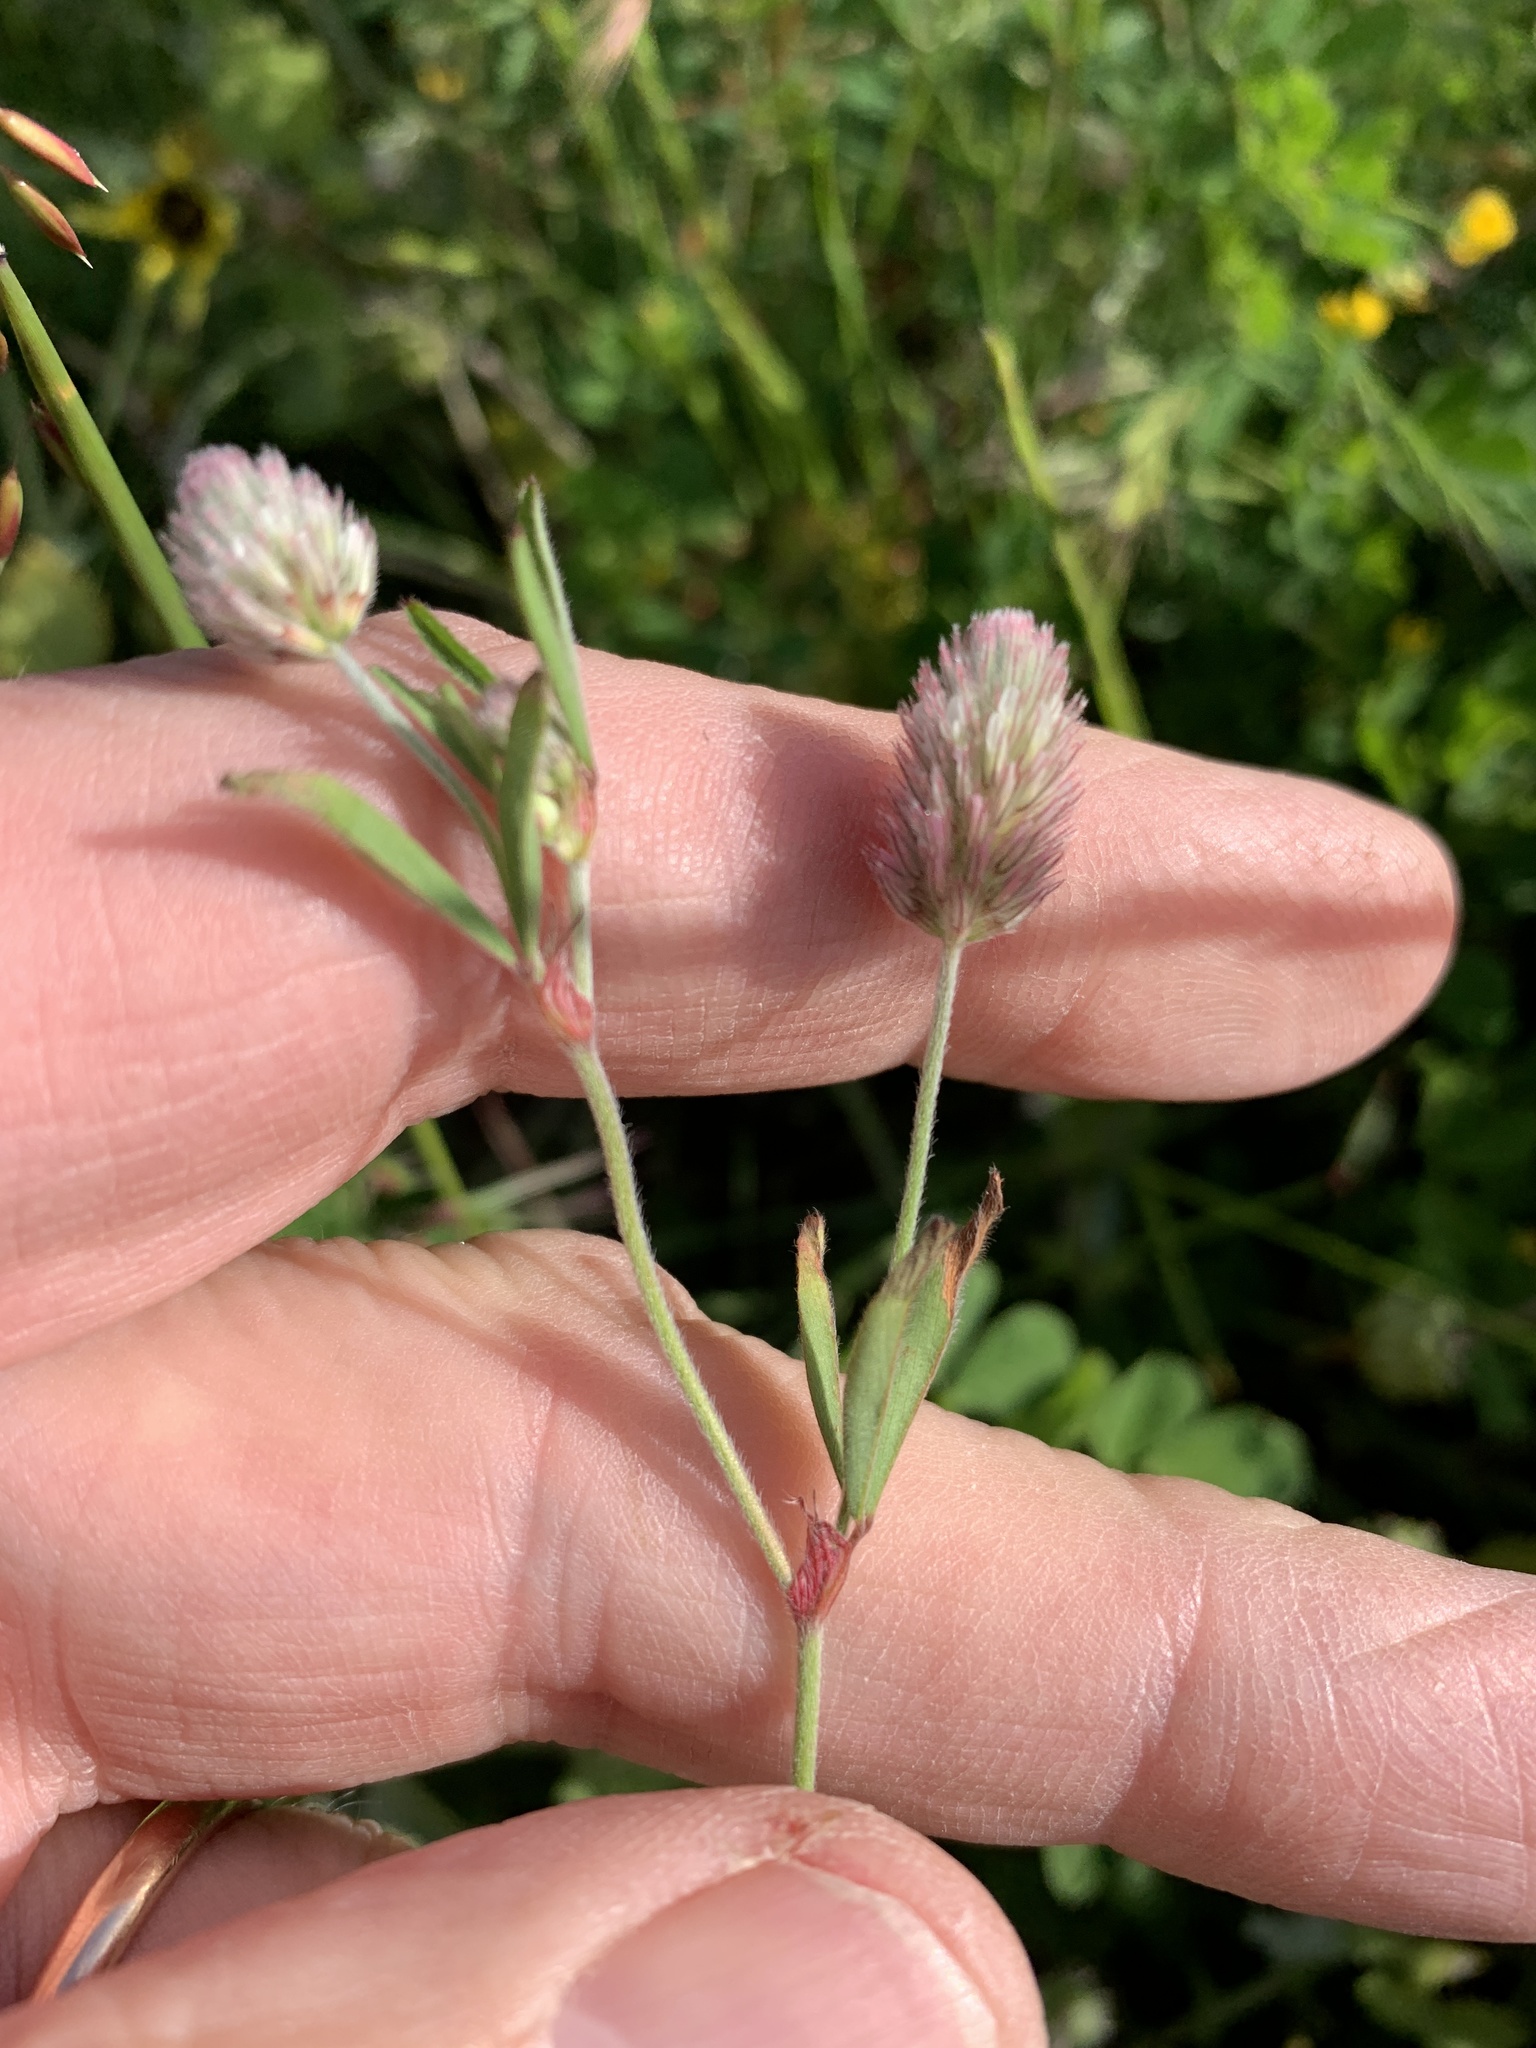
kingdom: Plantae
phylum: Tracheophyta
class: Magnoliopsida
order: Fabales
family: Fabaceae
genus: Trifolium
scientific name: Trifolium arvense
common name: Hare's-foot clover
